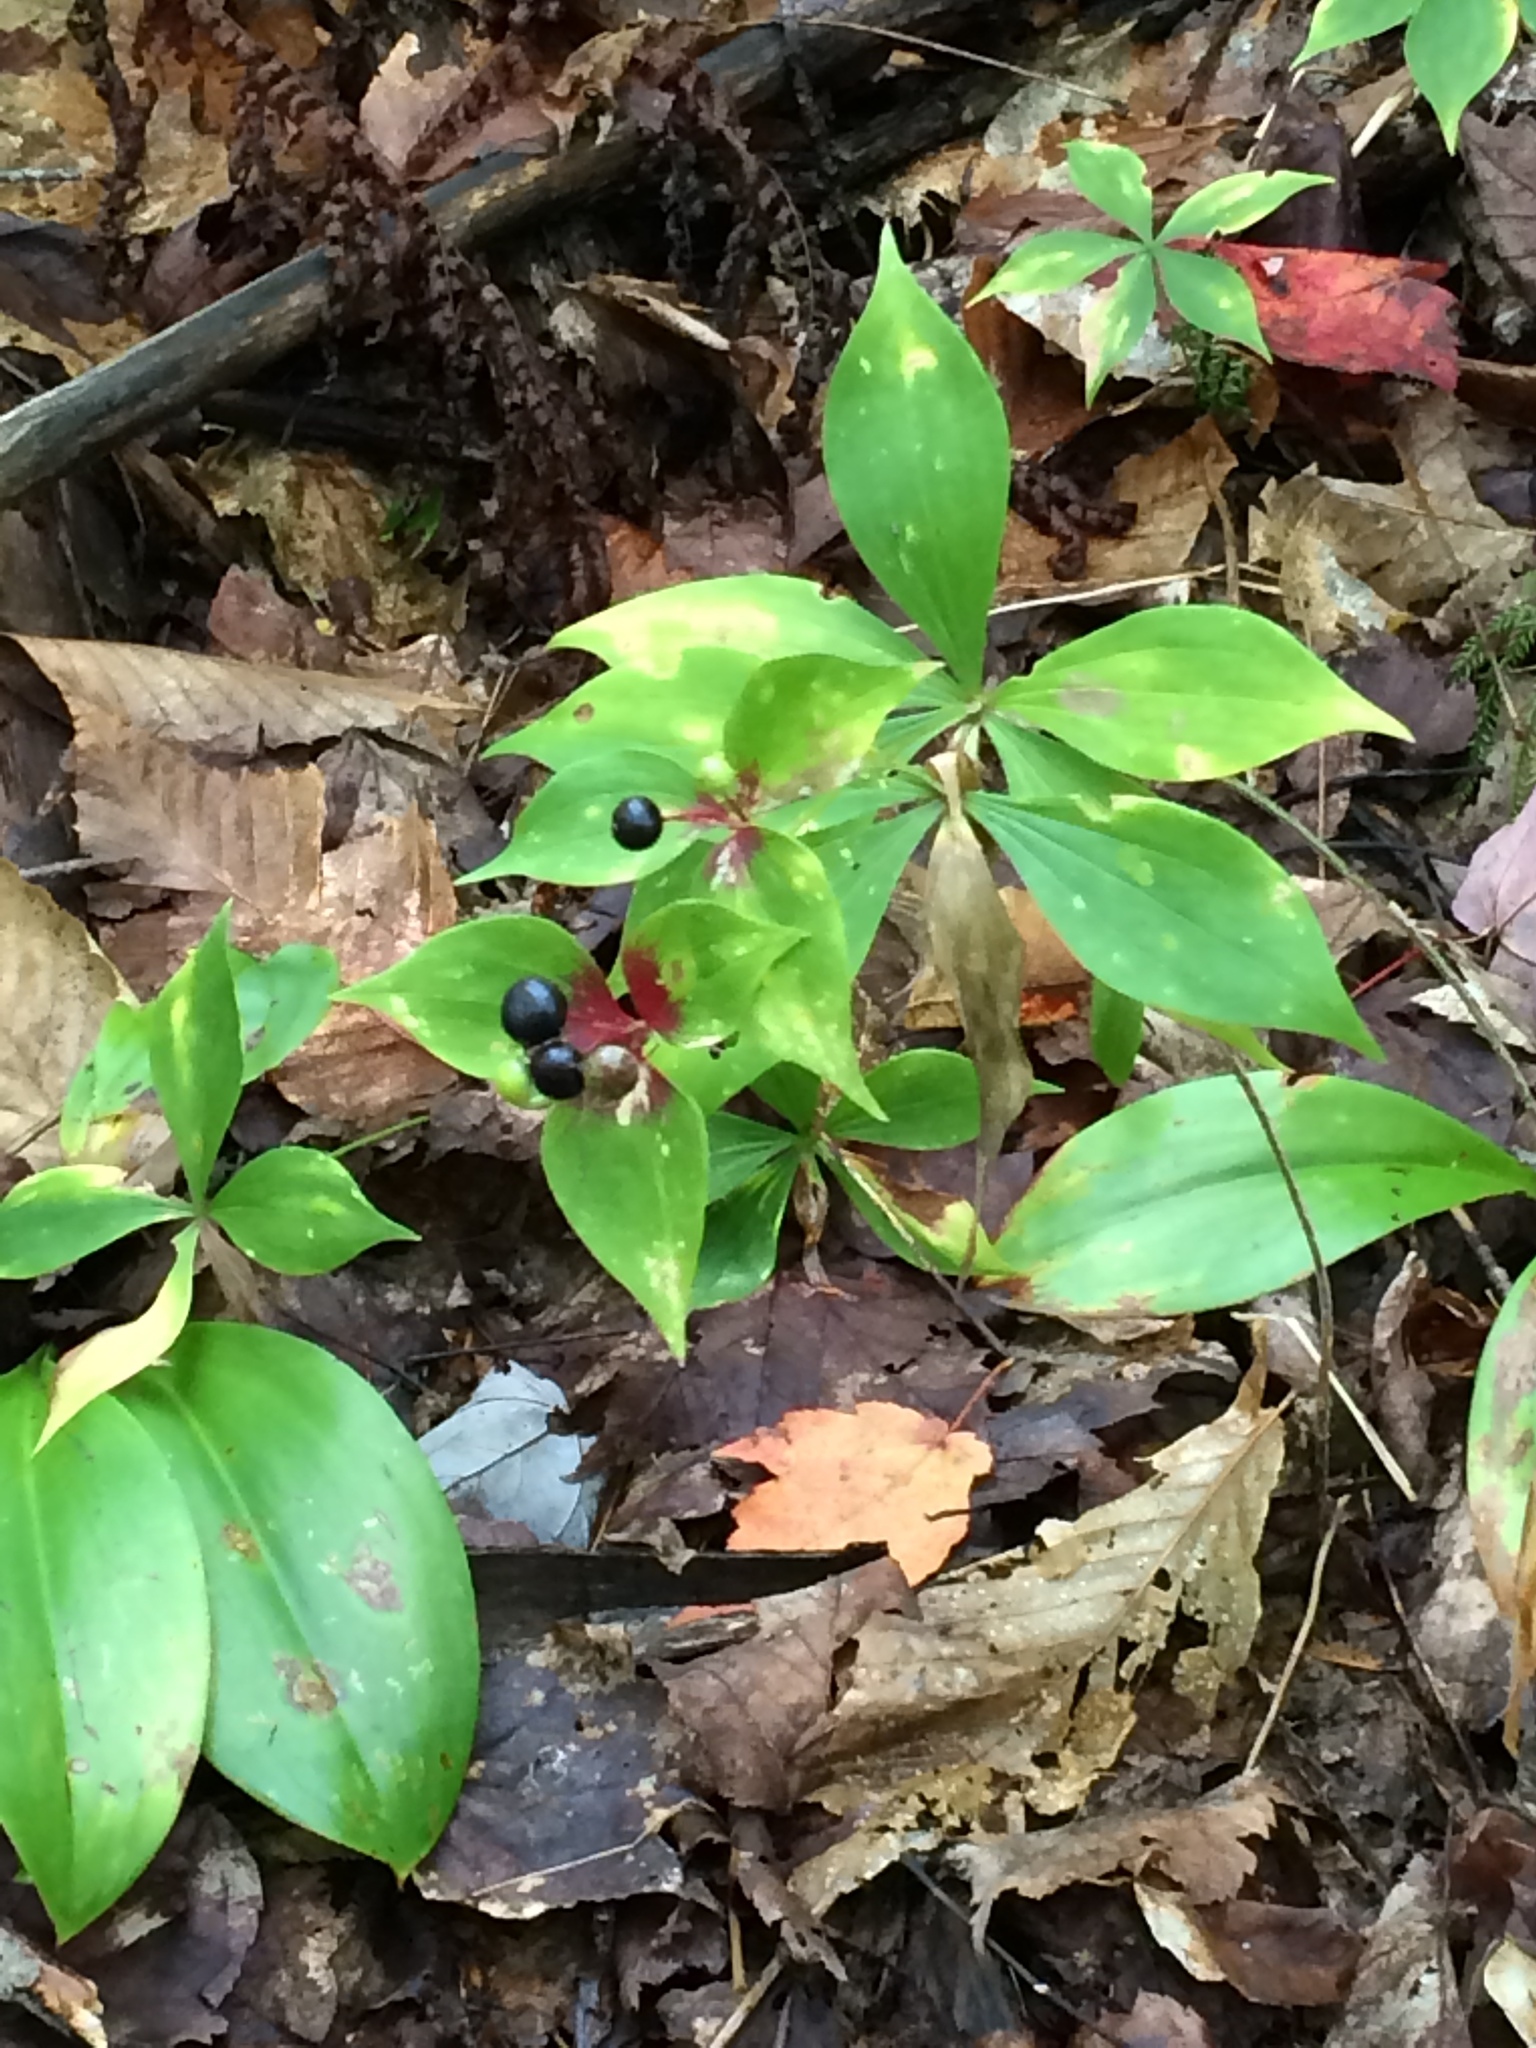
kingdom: Plantae
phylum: Tracheophyta
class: Liliopsida
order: Liliales
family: Liliaceae
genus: Medeola
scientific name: Medeola virginiana
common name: Indian cucumber-root
